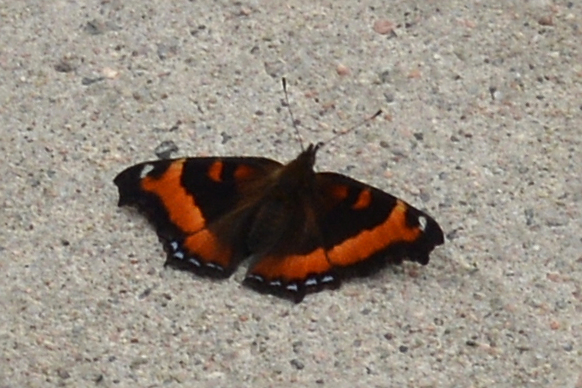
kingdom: Animalia
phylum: Arthropoda
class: Insecta
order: Lepidoptera
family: Nymphalidae
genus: Aglais
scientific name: Aglais milberti
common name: Milbert's tortoiseshell
